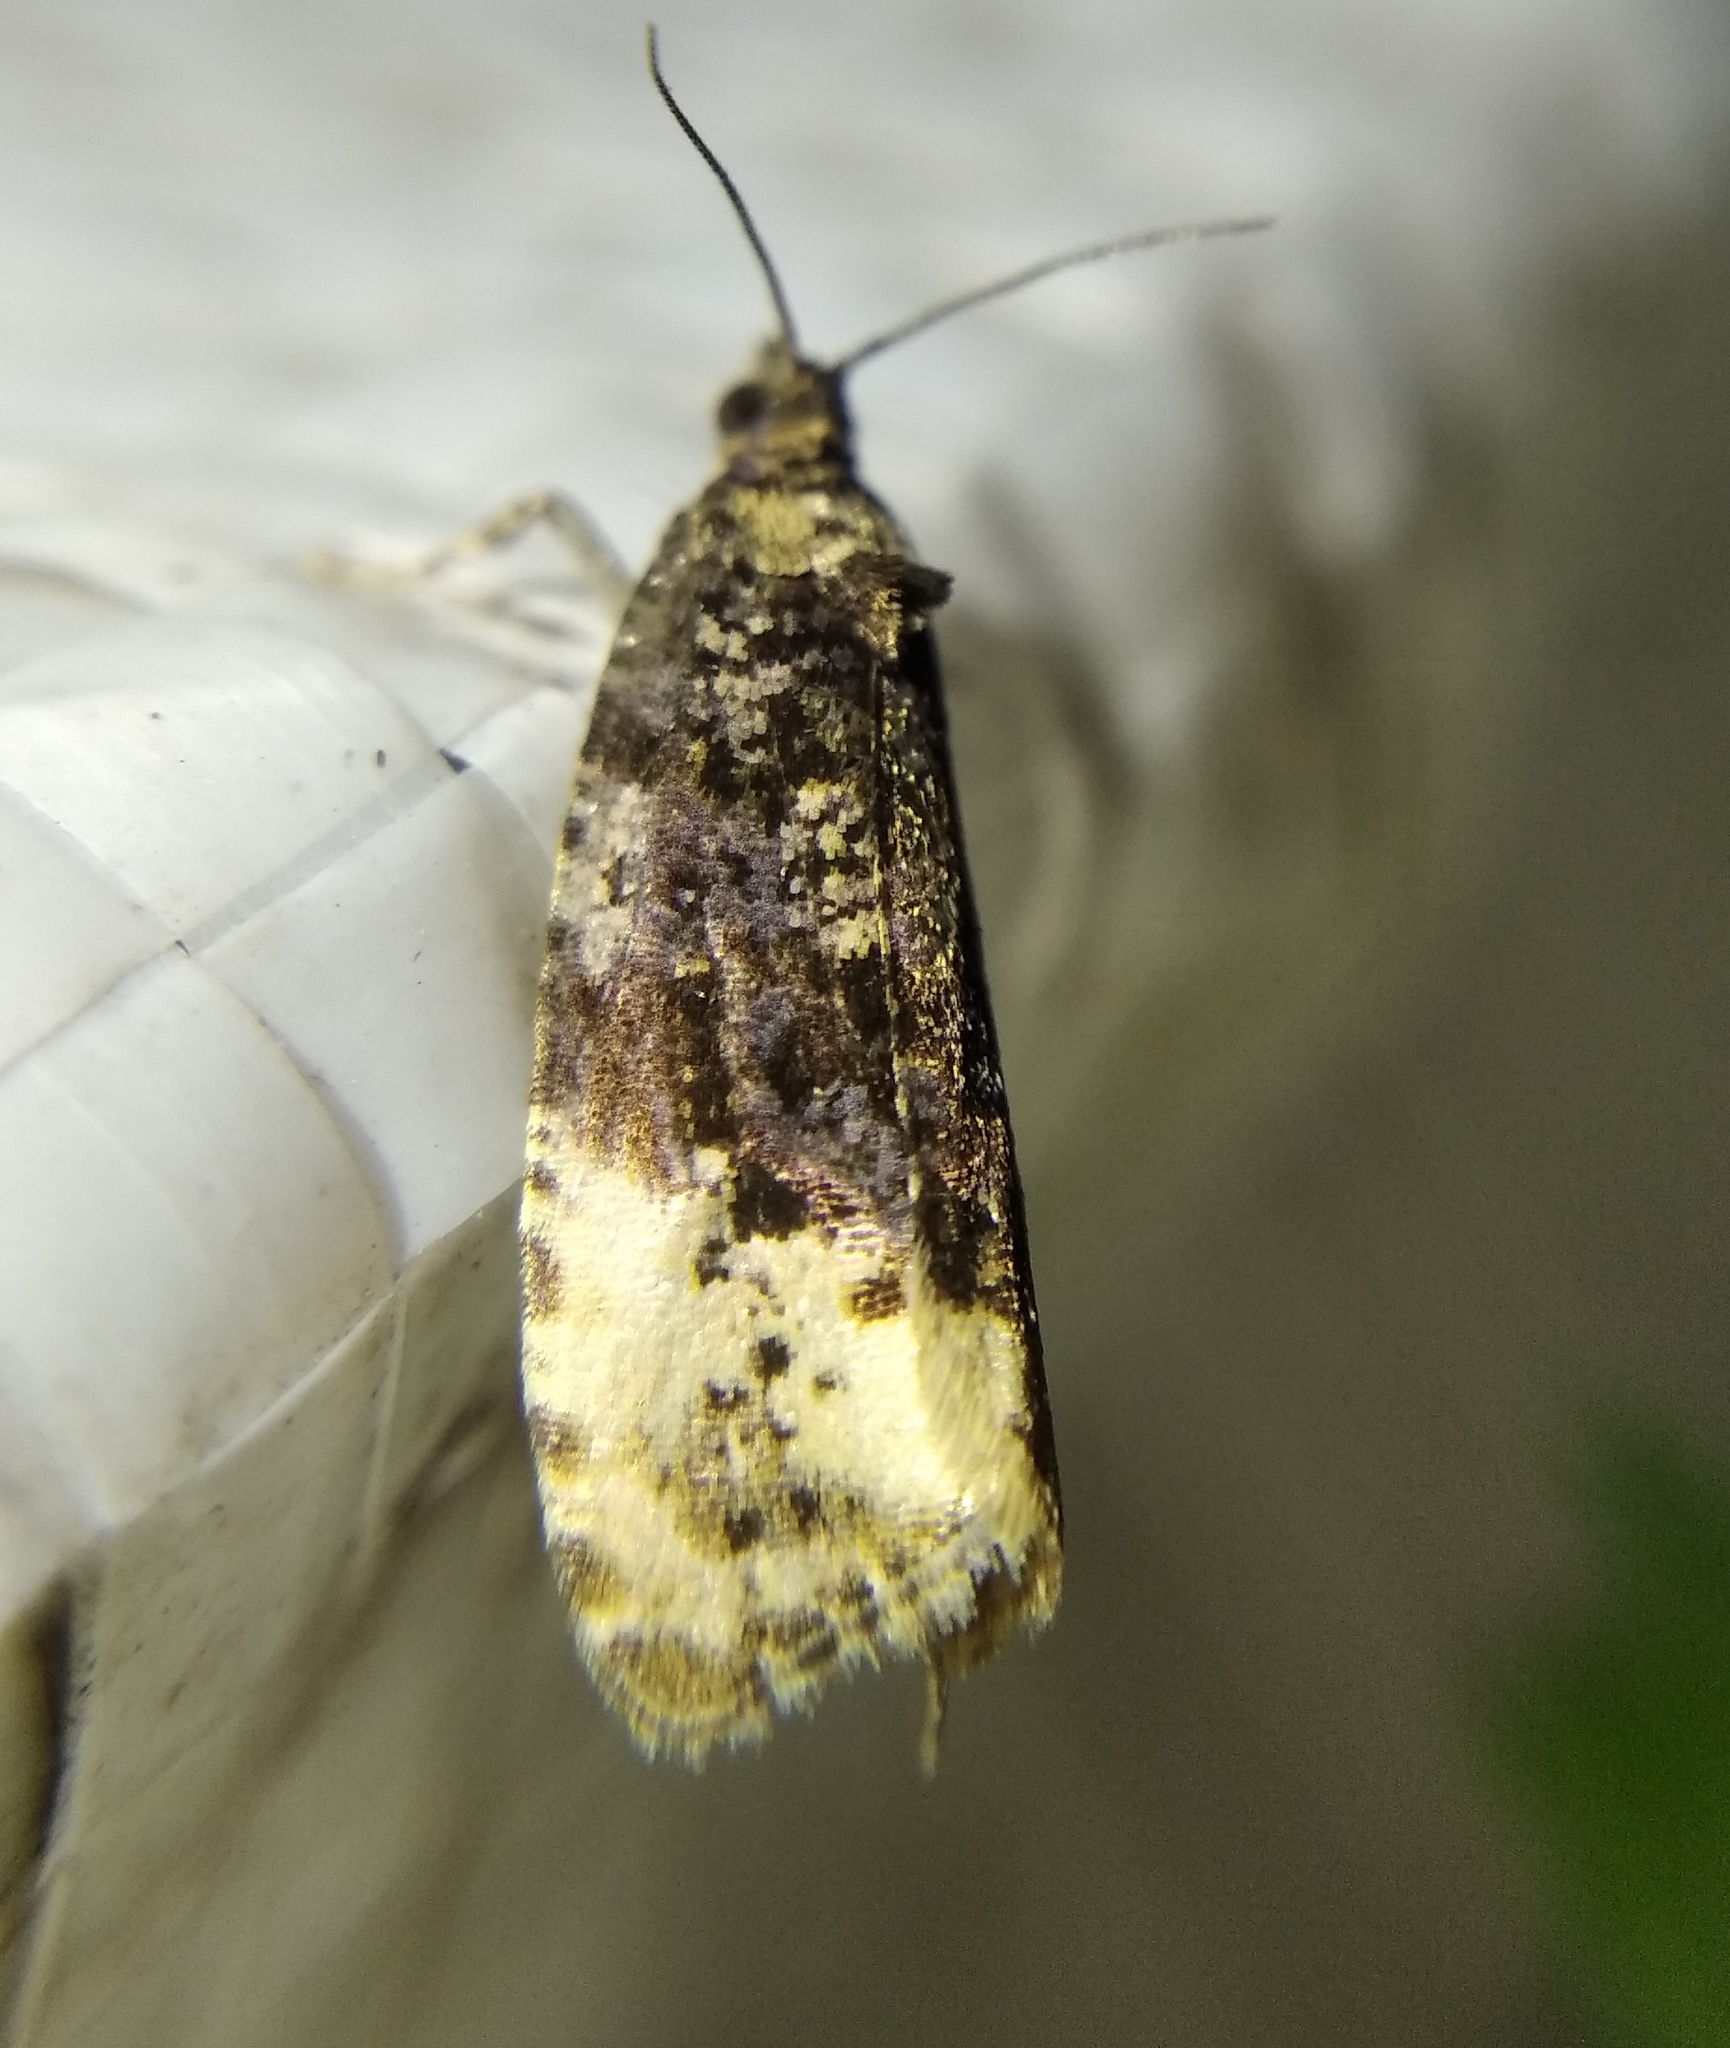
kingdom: Animalia
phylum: Arthropoda
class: Insecta
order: Lepidoptera
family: Tortricidae
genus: Hedya
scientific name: Hedya ochroleucana
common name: Buff-tipped marble
